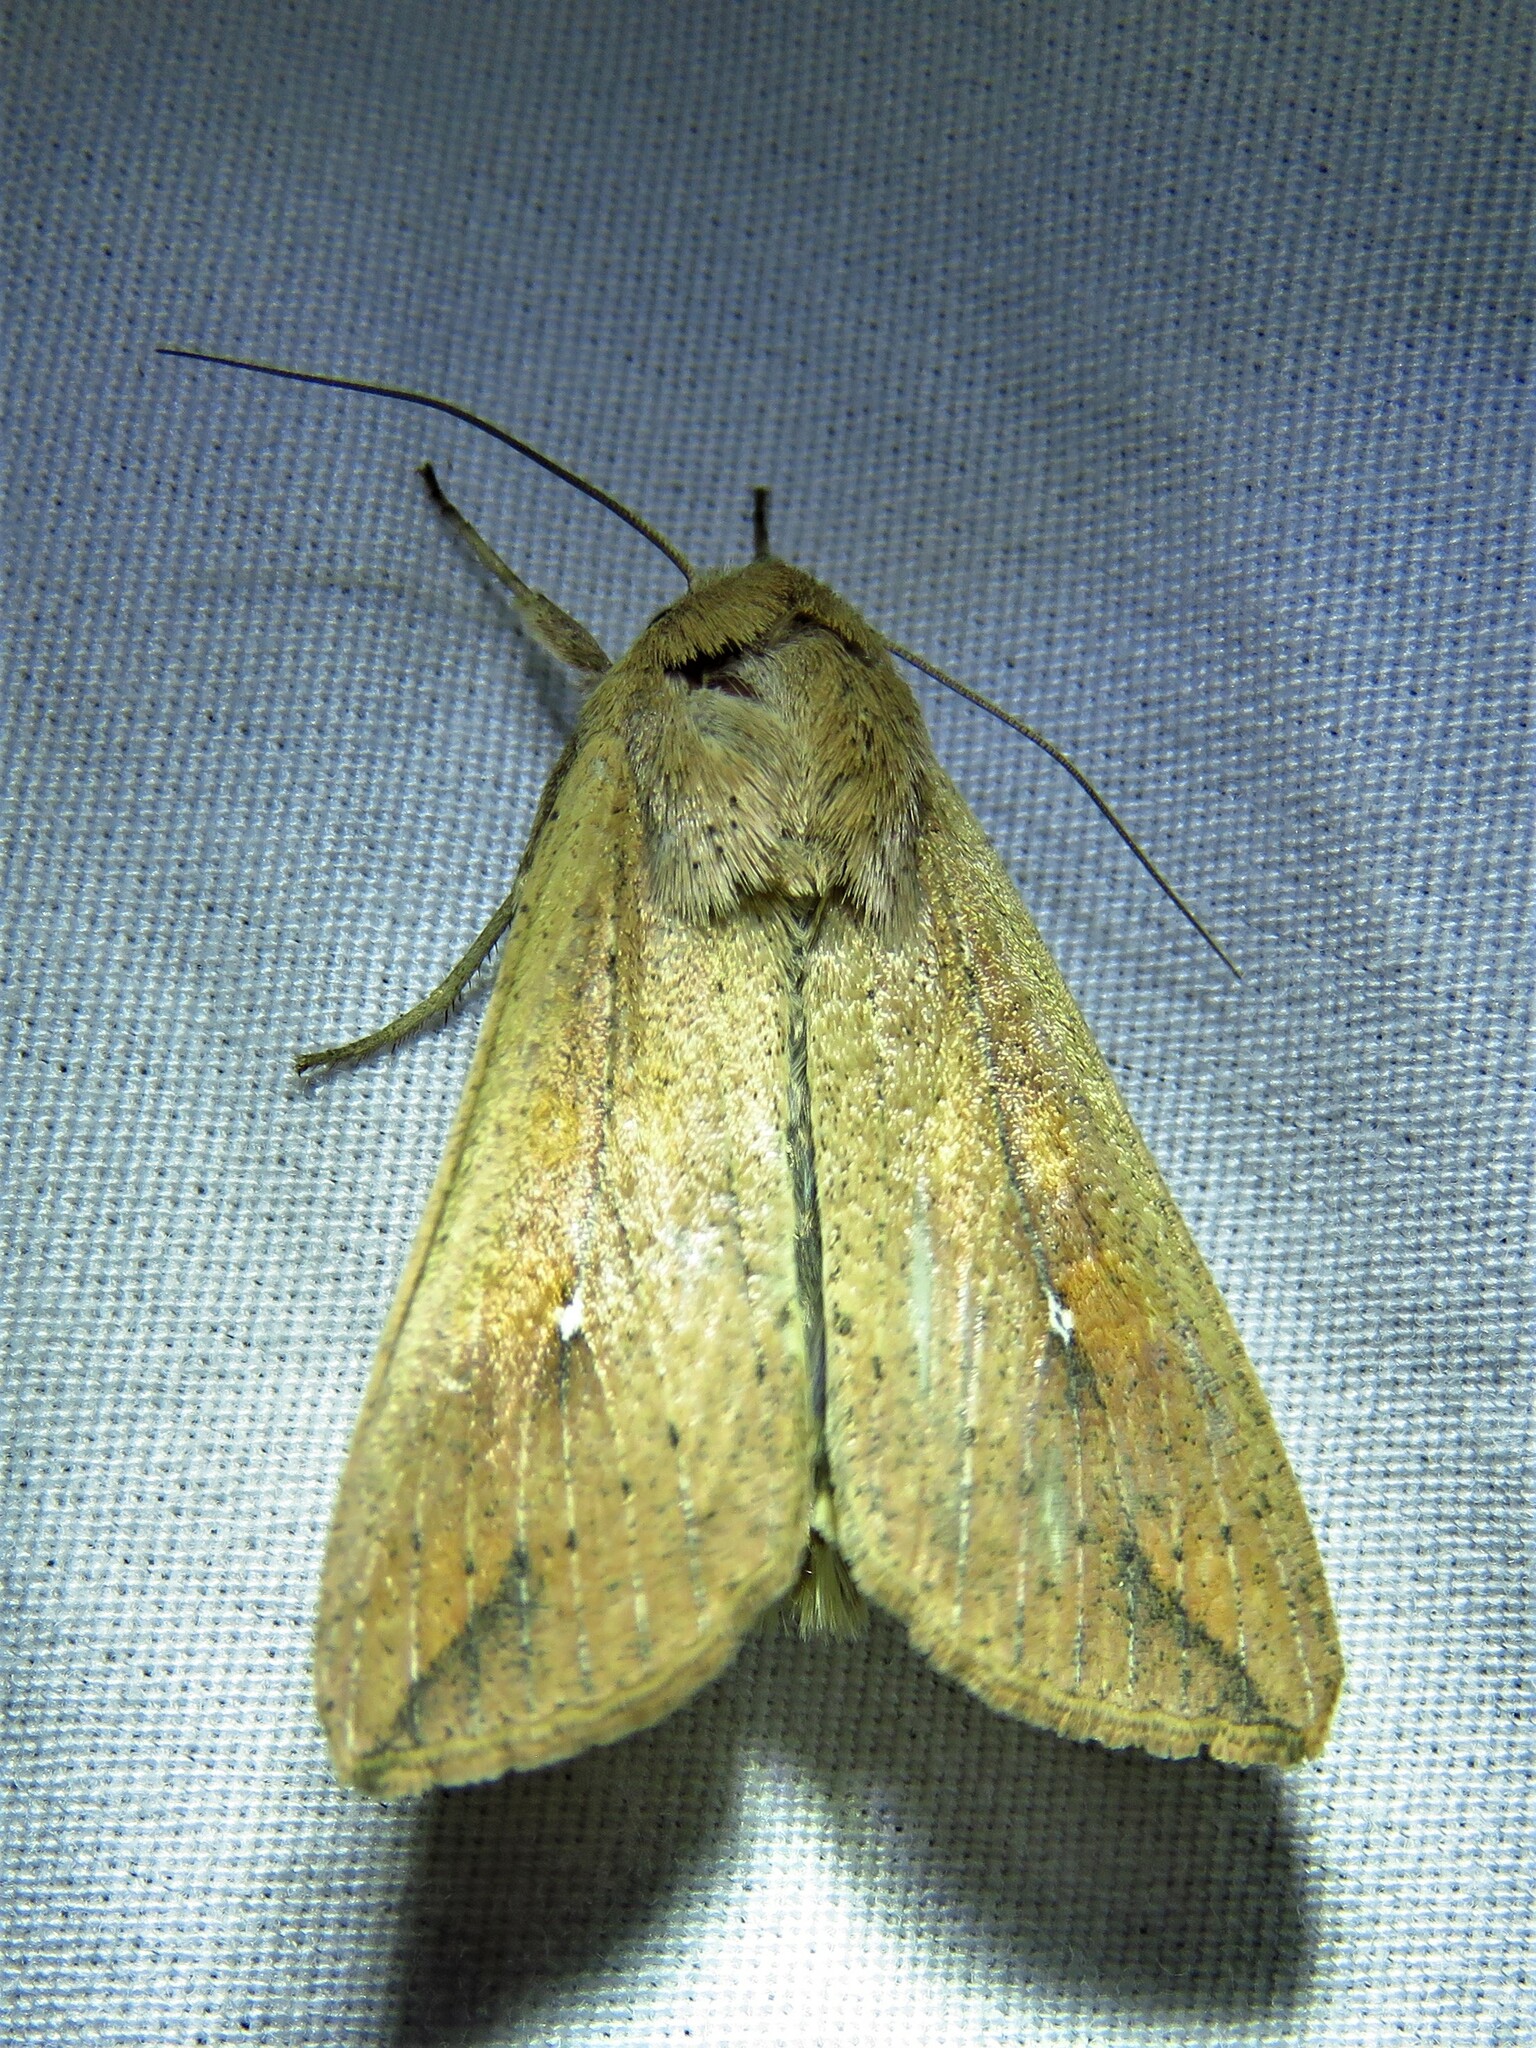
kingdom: Animalia
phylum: Arthropoda
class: Insecta
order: Lepidoptera
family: Noctuidae
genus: Mythimna
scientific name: Mythimna unipuncta
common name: White-speck
